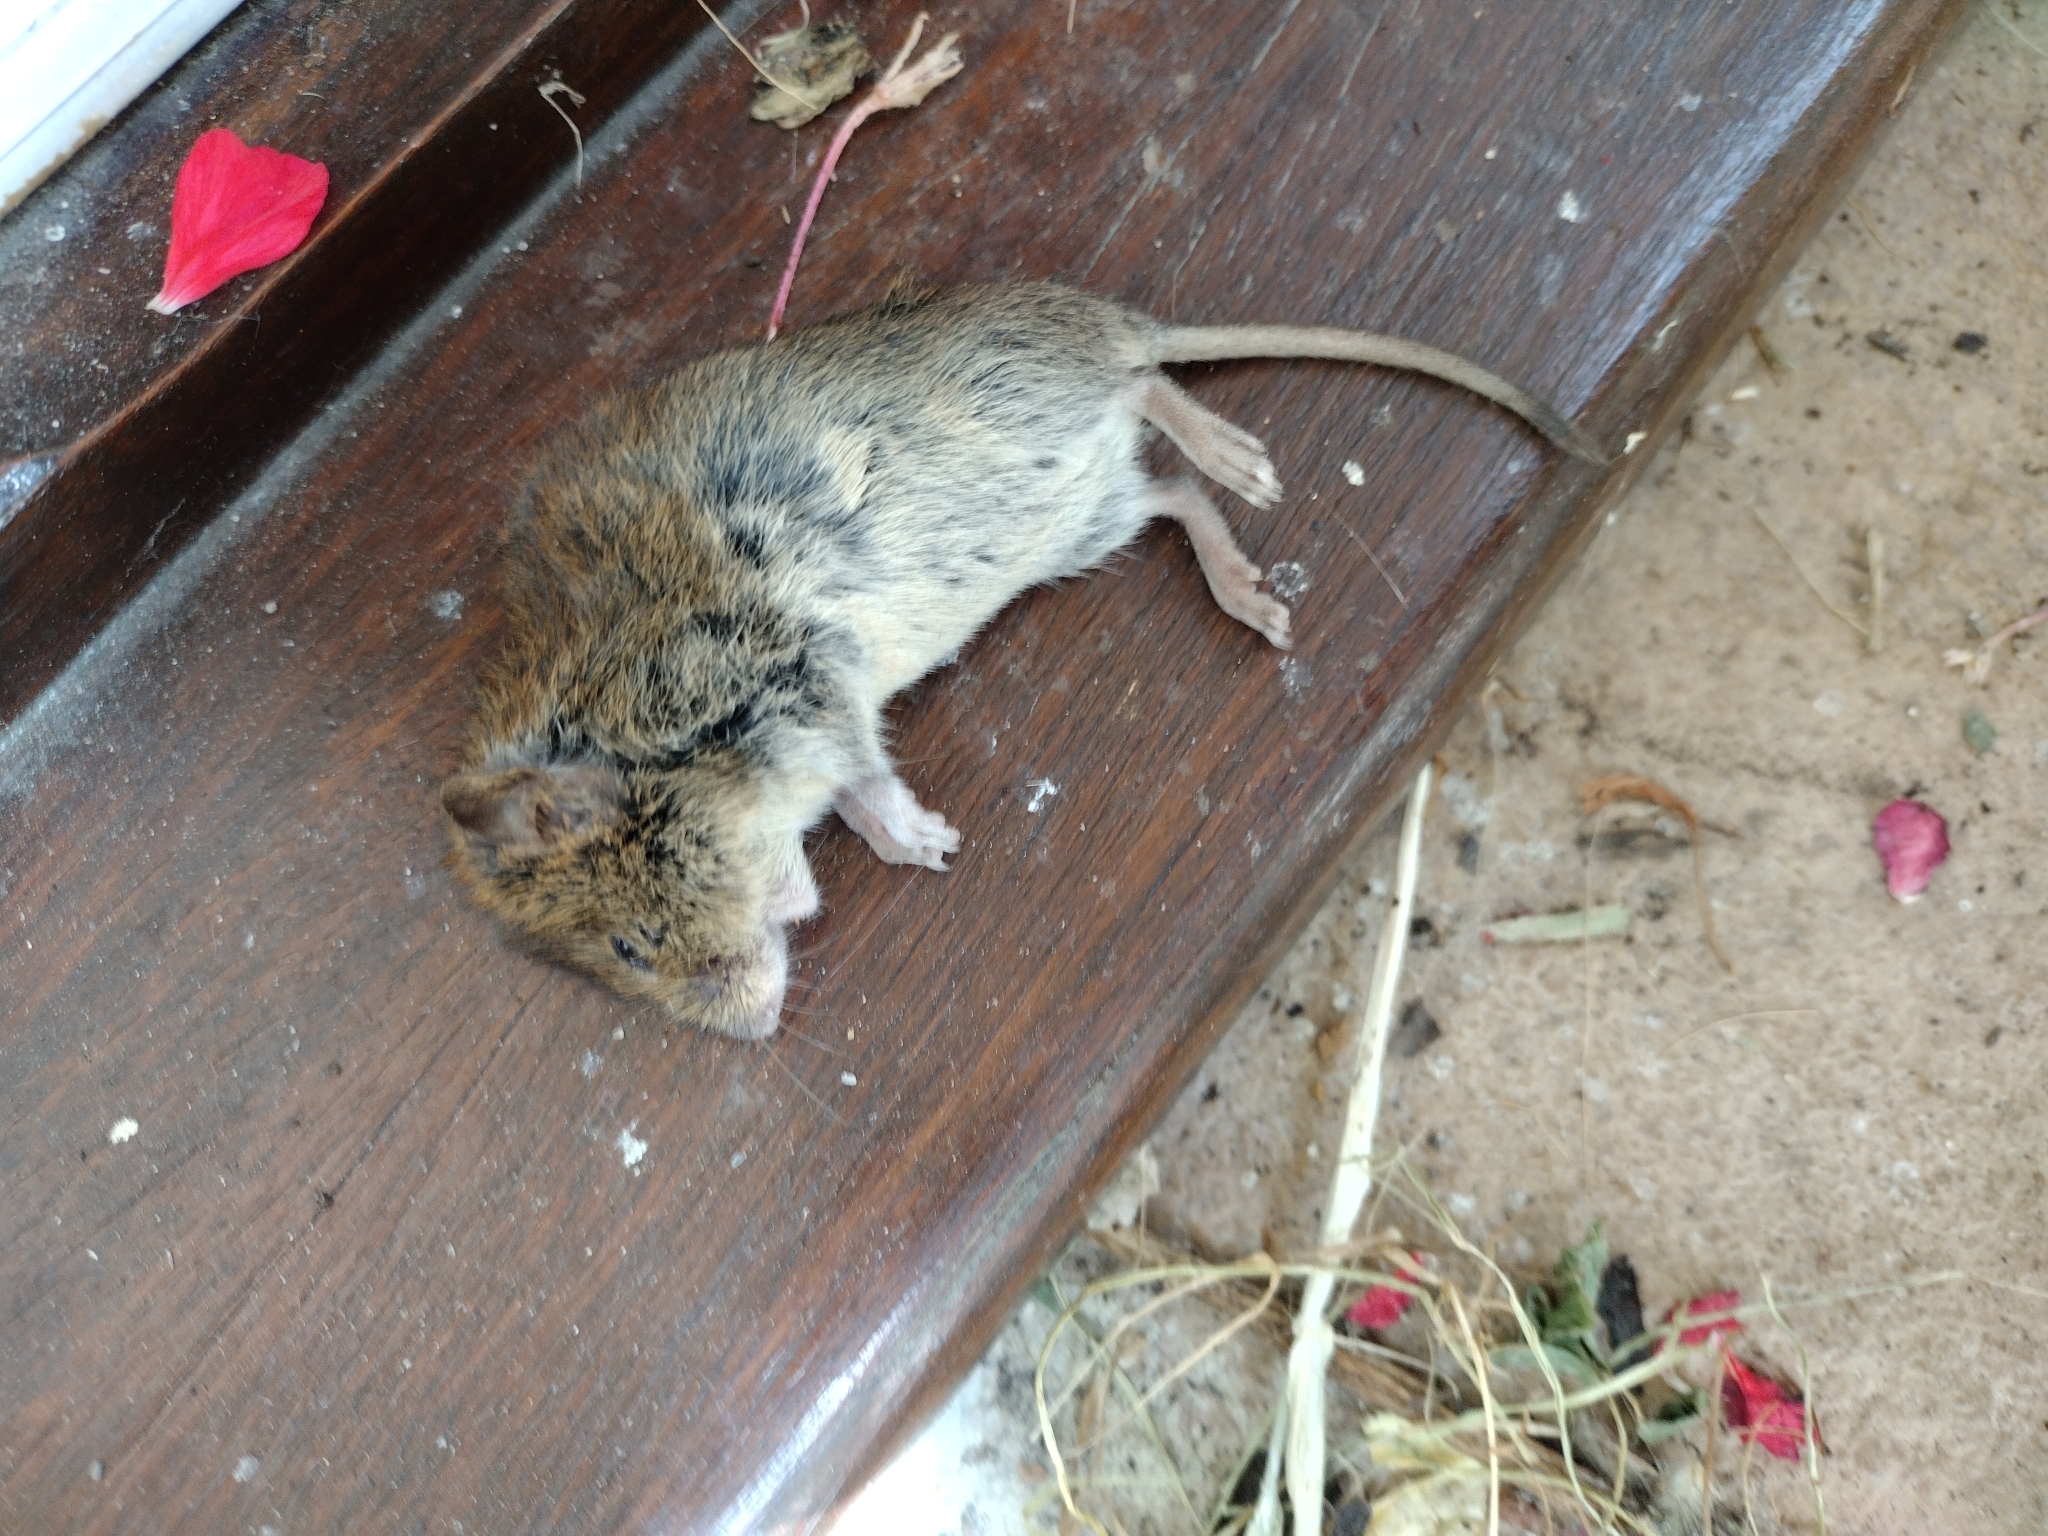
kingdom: Animalia
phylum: Chordata
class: Mammalia
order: Rodentia
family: Cricetidae
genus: Myodes
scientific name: Myodes glareolus
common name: Bank vole
